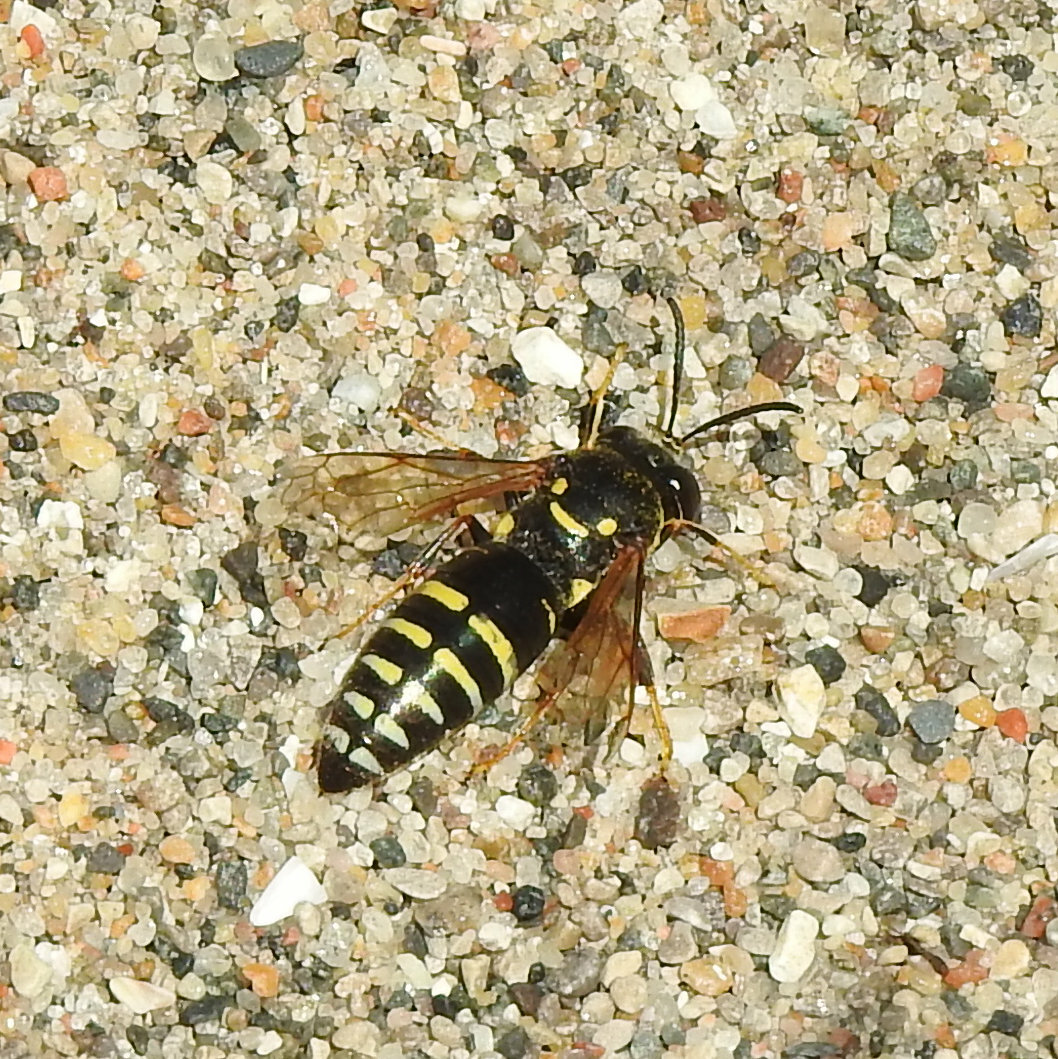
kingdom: Animalia
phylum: Arthropoda
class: Insecta
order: Hymenoptera
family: Crabronidae
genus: Bicyrtes
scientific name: Bicyrtes ventralis
